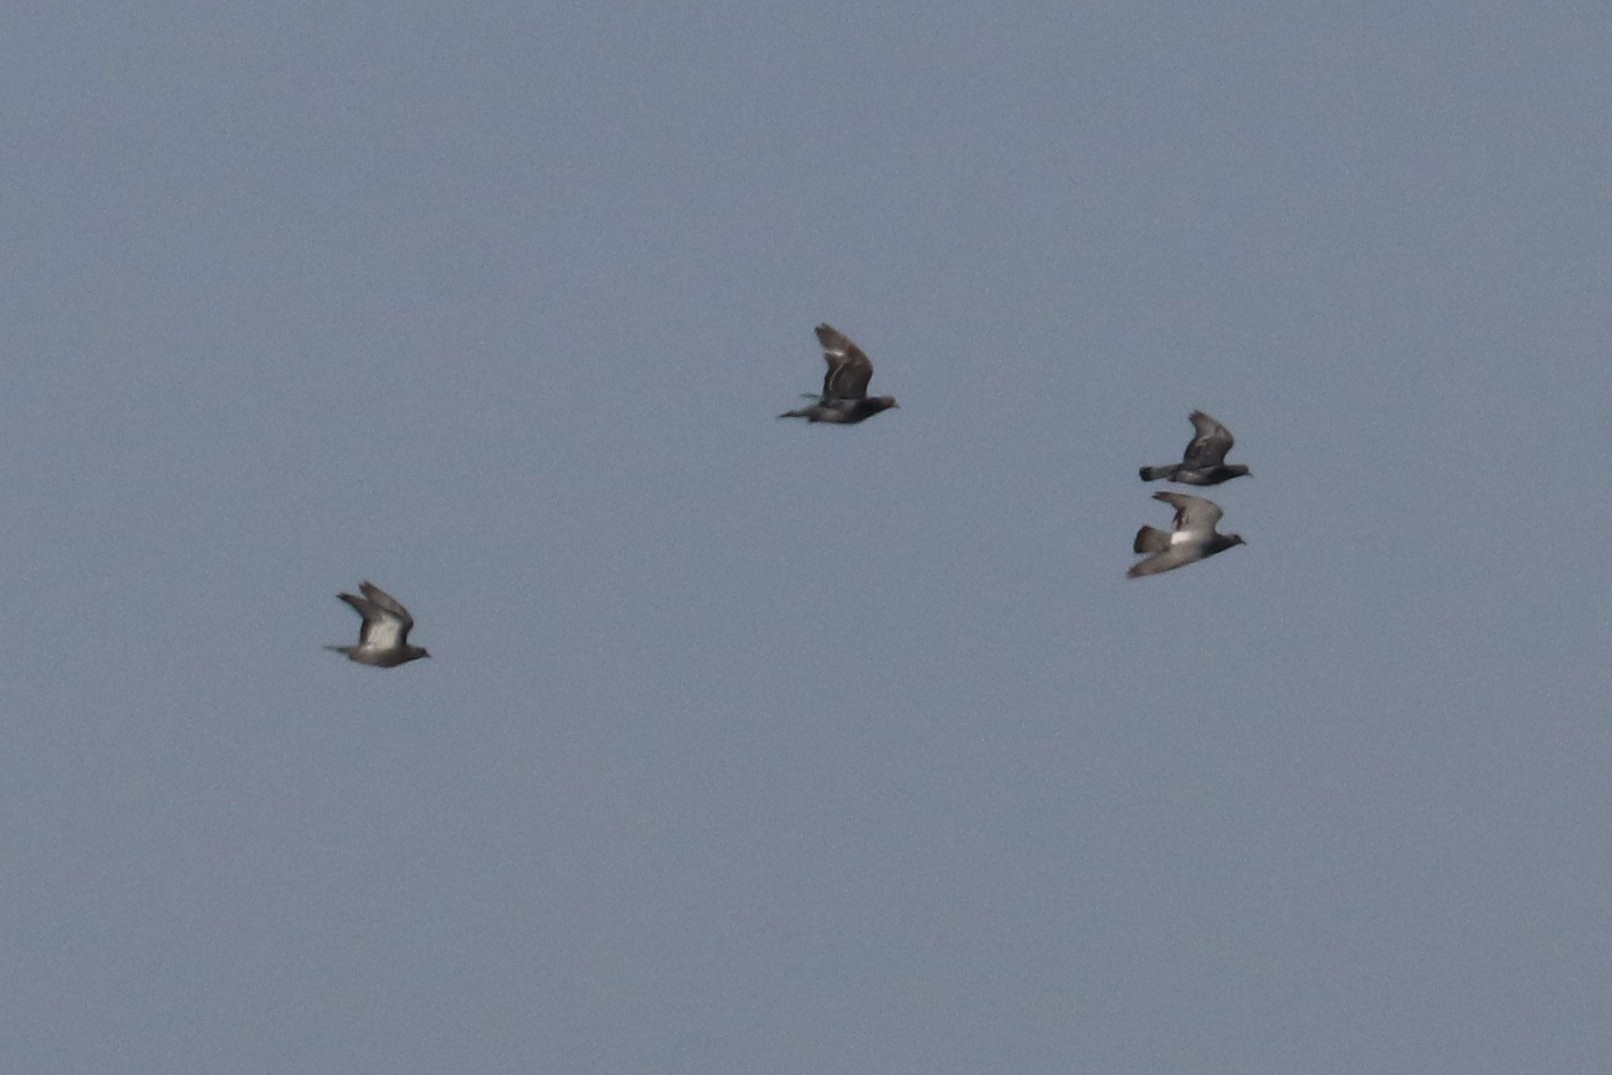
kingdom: Animalia
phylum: Chordata
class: Aves
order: Columbiformes
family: Columbidae
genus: Columba
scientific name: Columba livia
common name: Rock pigeon
